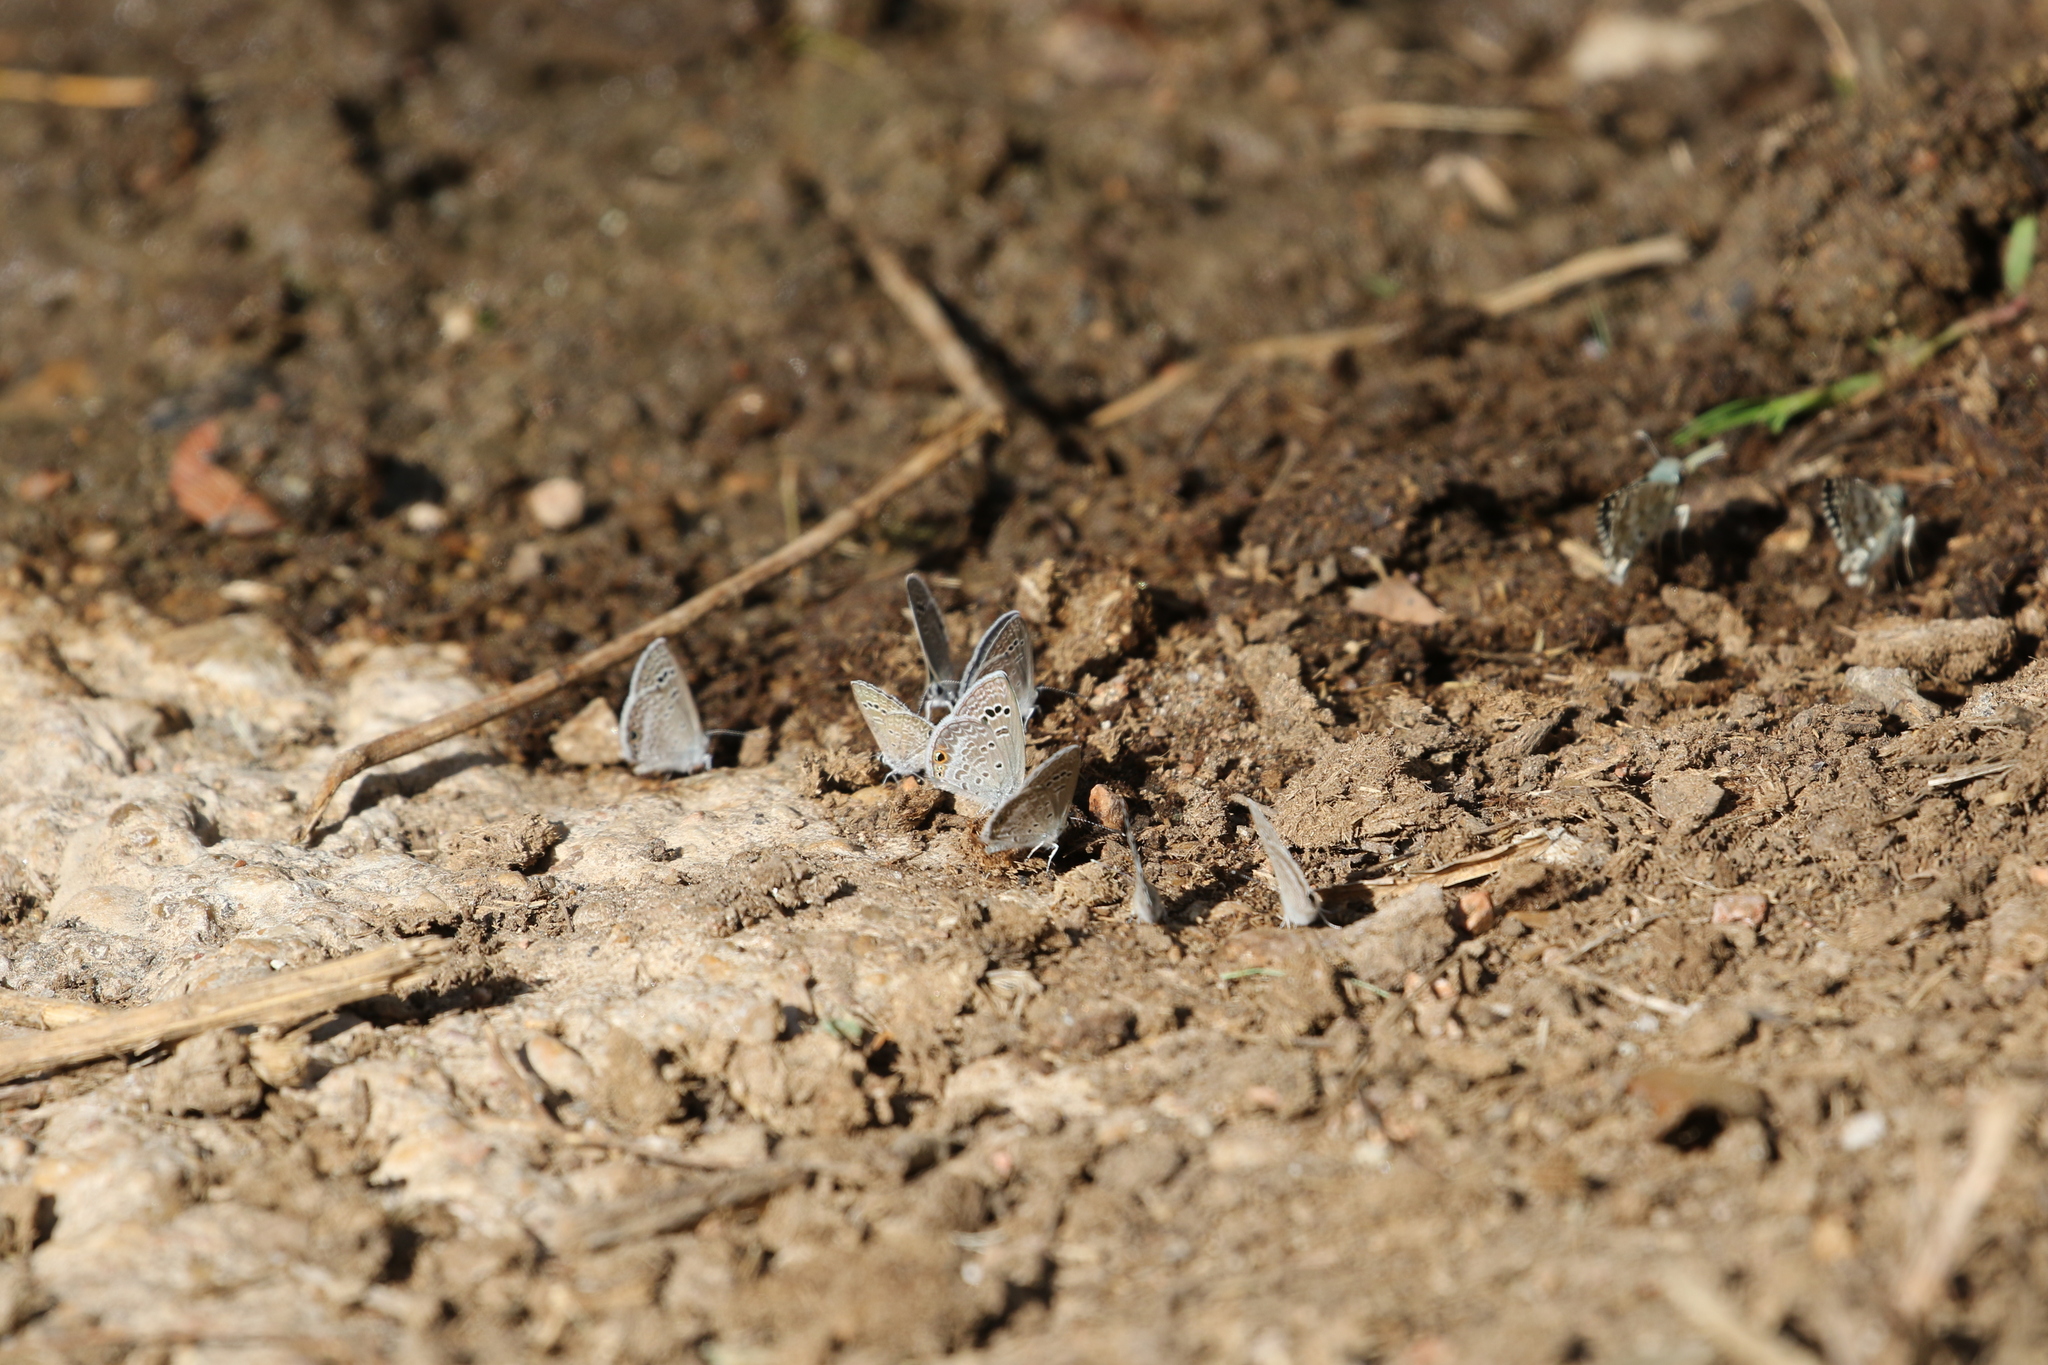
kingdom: Animalia
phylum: Arthropoda
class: Insecta
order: Lepidoptera
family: Lycaenidae
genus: Echinargus
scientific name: Echinargus isola
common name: Reakirt's blue
